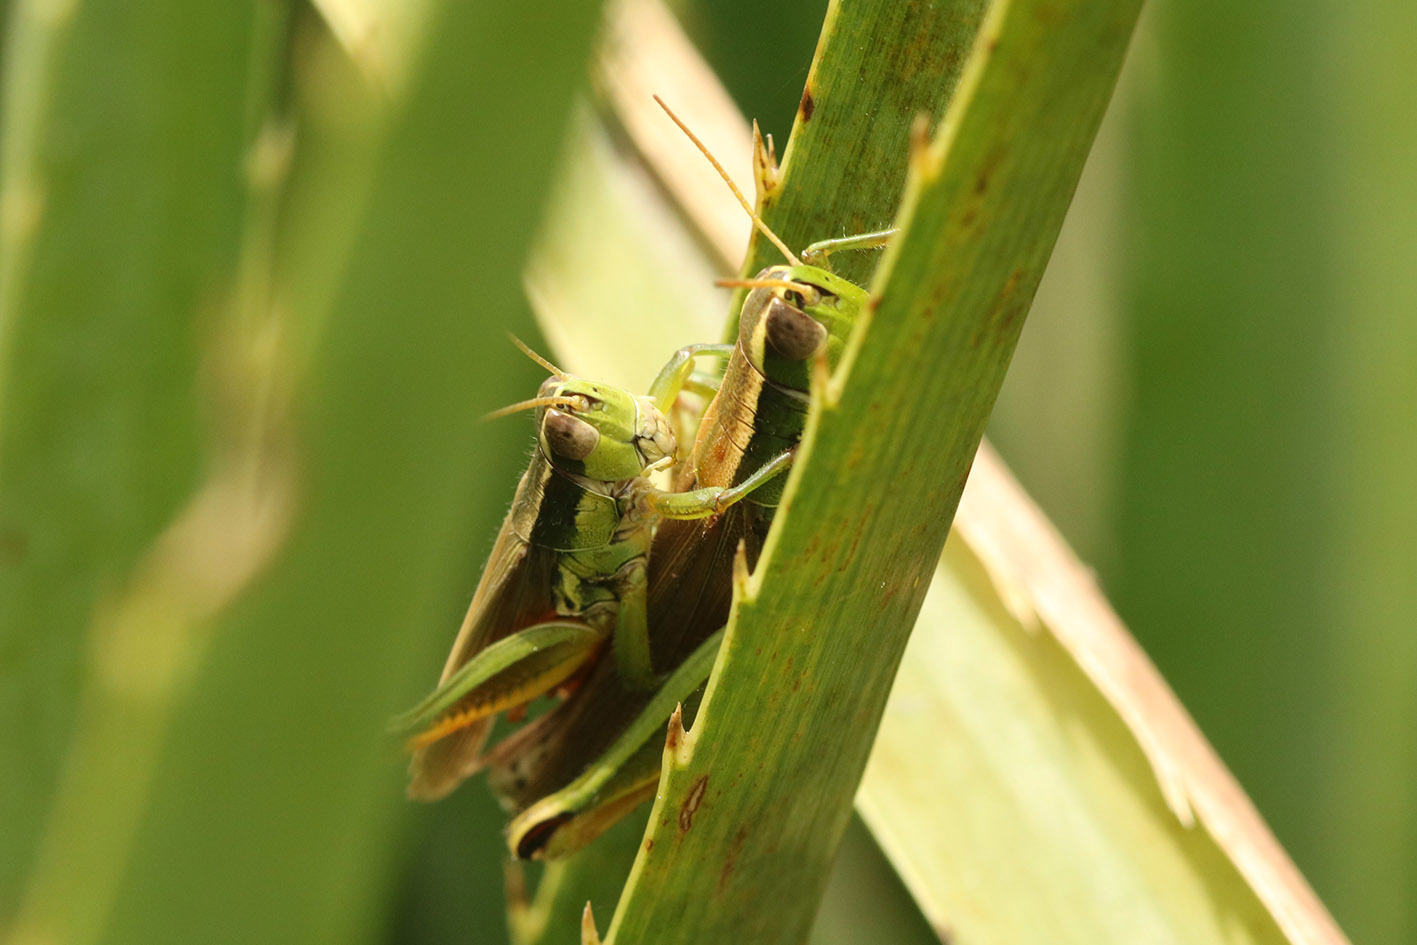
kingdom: Animalia
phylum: Arthropoda
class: Insecta
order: Orthoptera
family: Acrididae
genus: Scotussa
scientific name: Scotussa cliens
